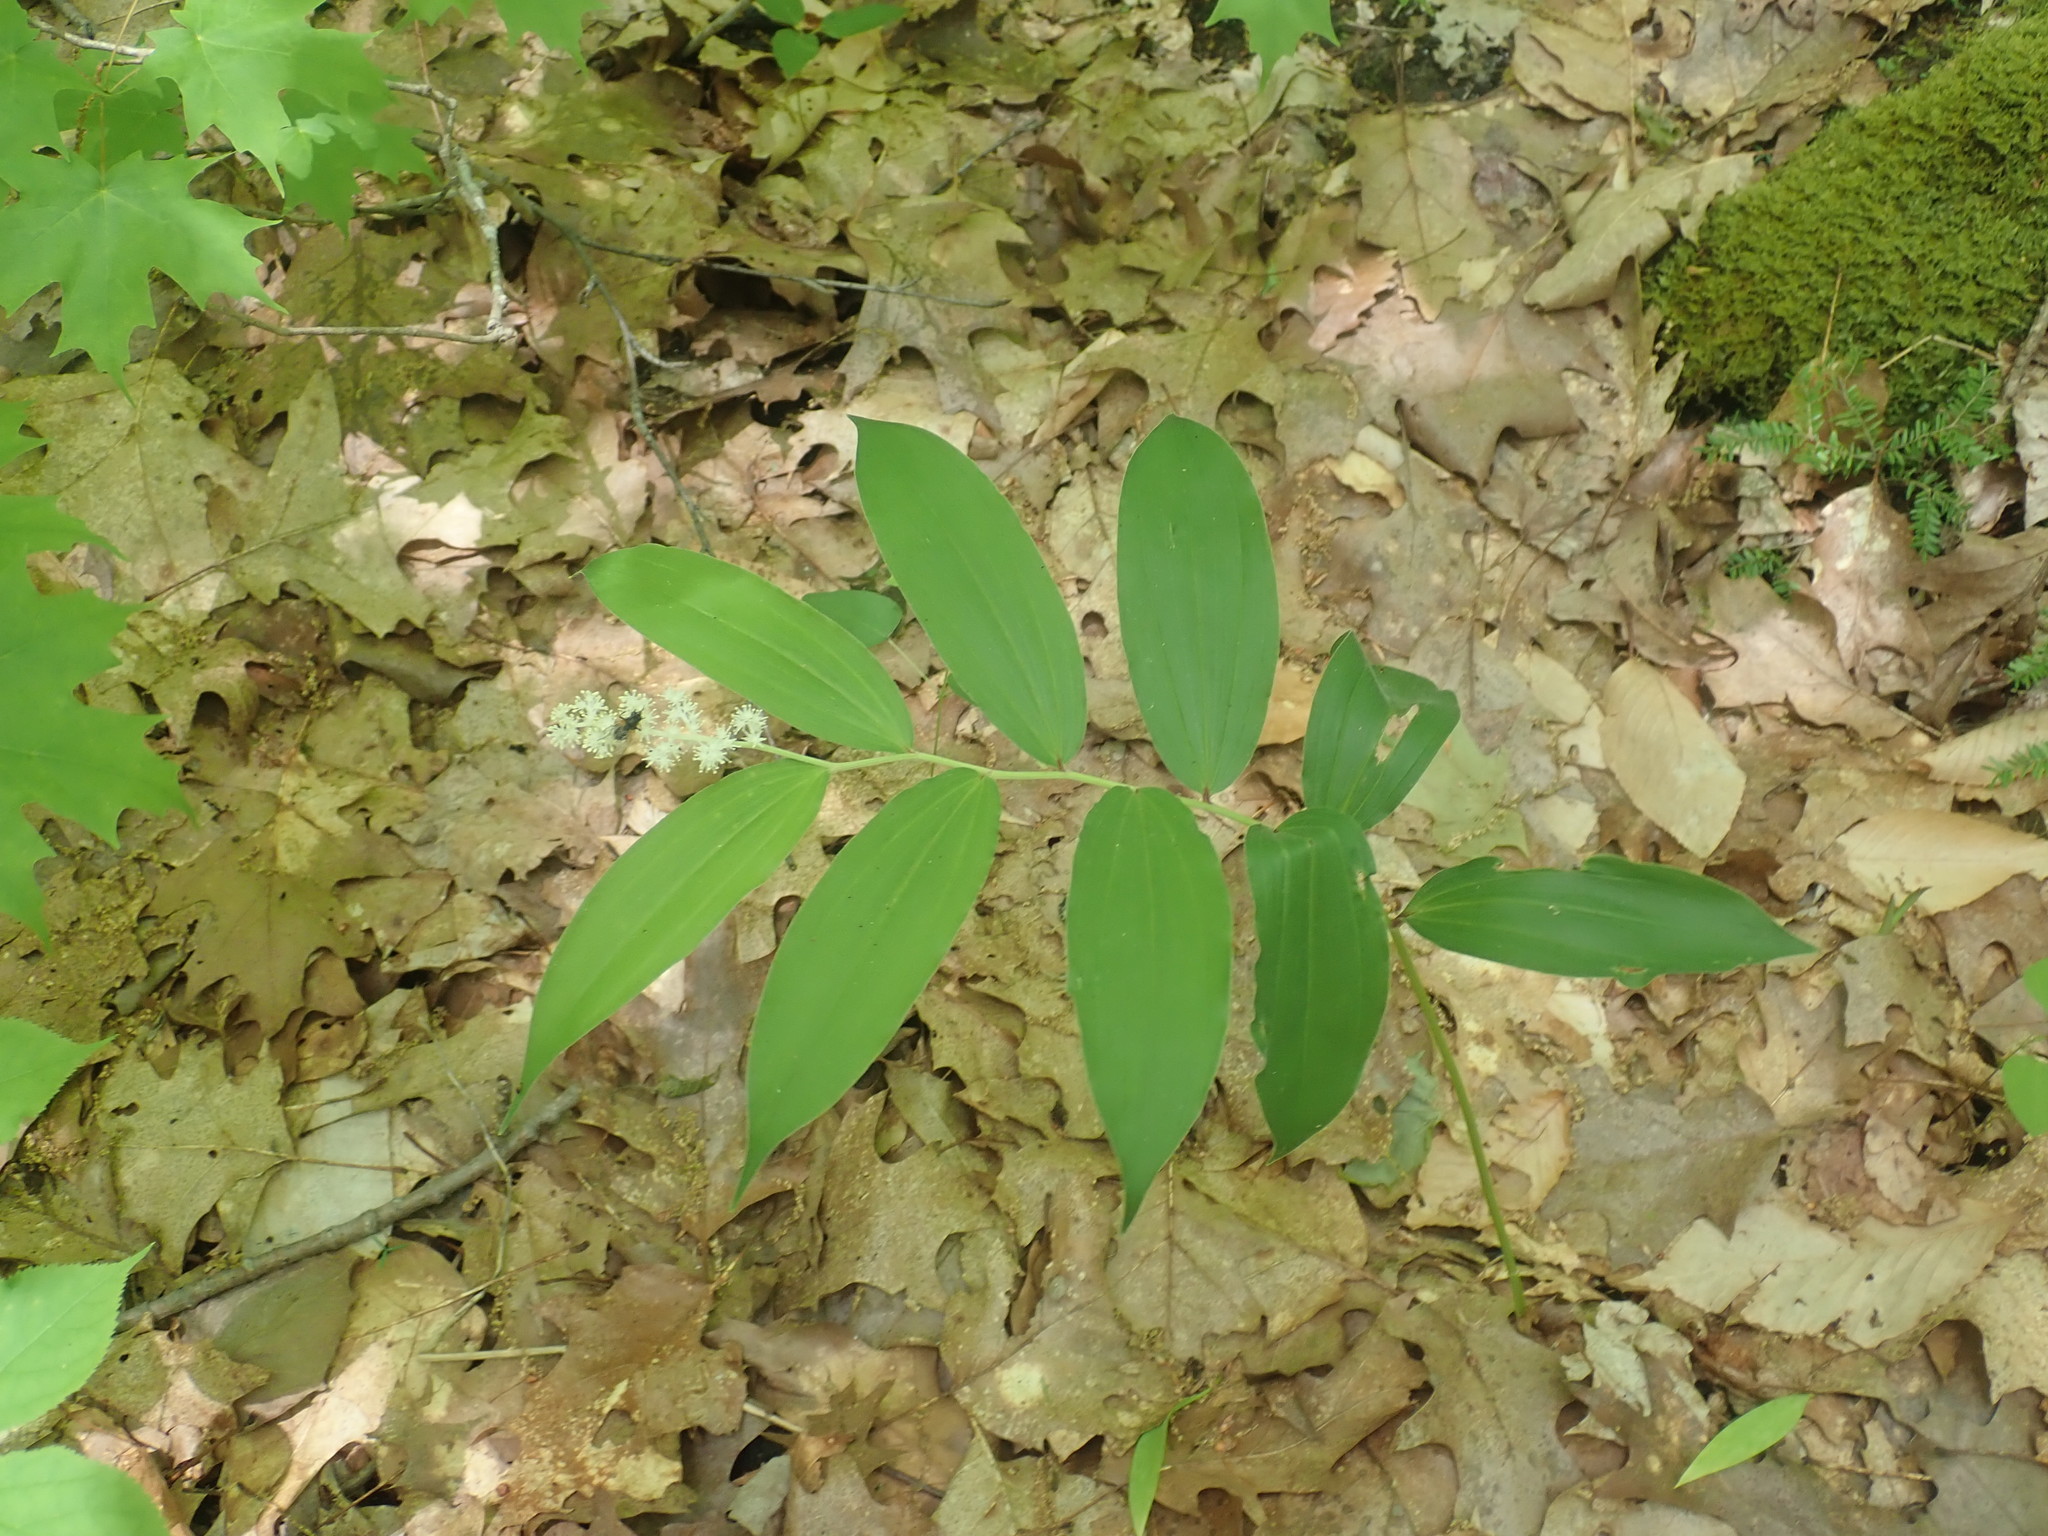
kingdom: Plantae
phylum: Tracheophyta
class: Liliopsida
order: Asparagales
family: Asparagaceae
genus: Maianthemum
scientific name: Maianthemum racemosum
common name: False spikenard
